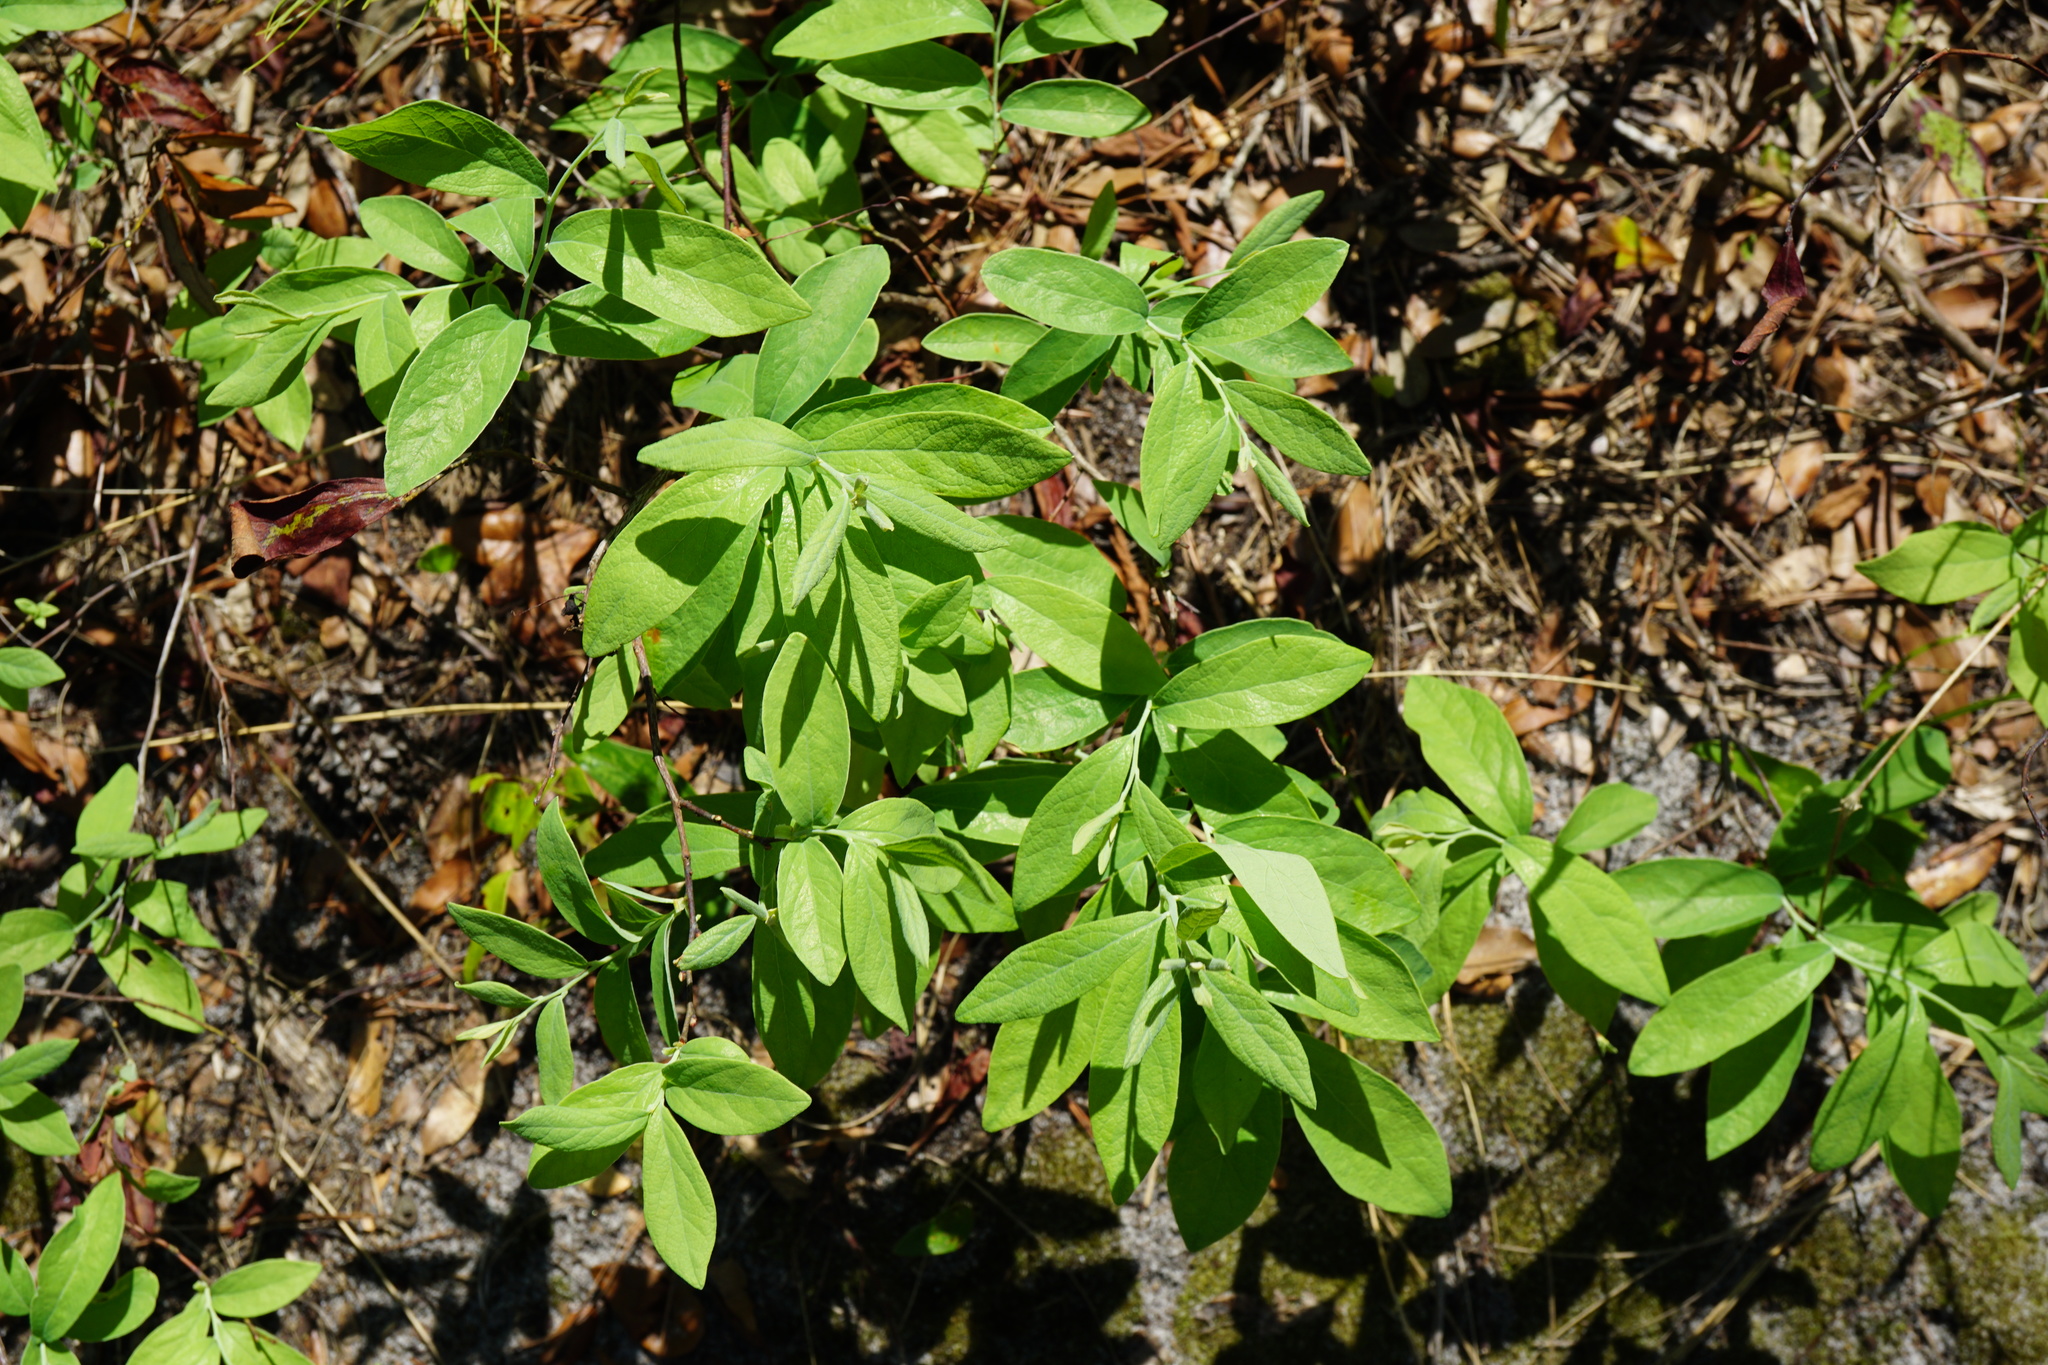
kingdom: Plantae
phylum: Tracheophyta
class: Magnoliopsida
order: Ericales
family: Ericaceae
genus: Gaylussacia
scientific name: Gaylussacia frondosa
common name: Dangleberry
